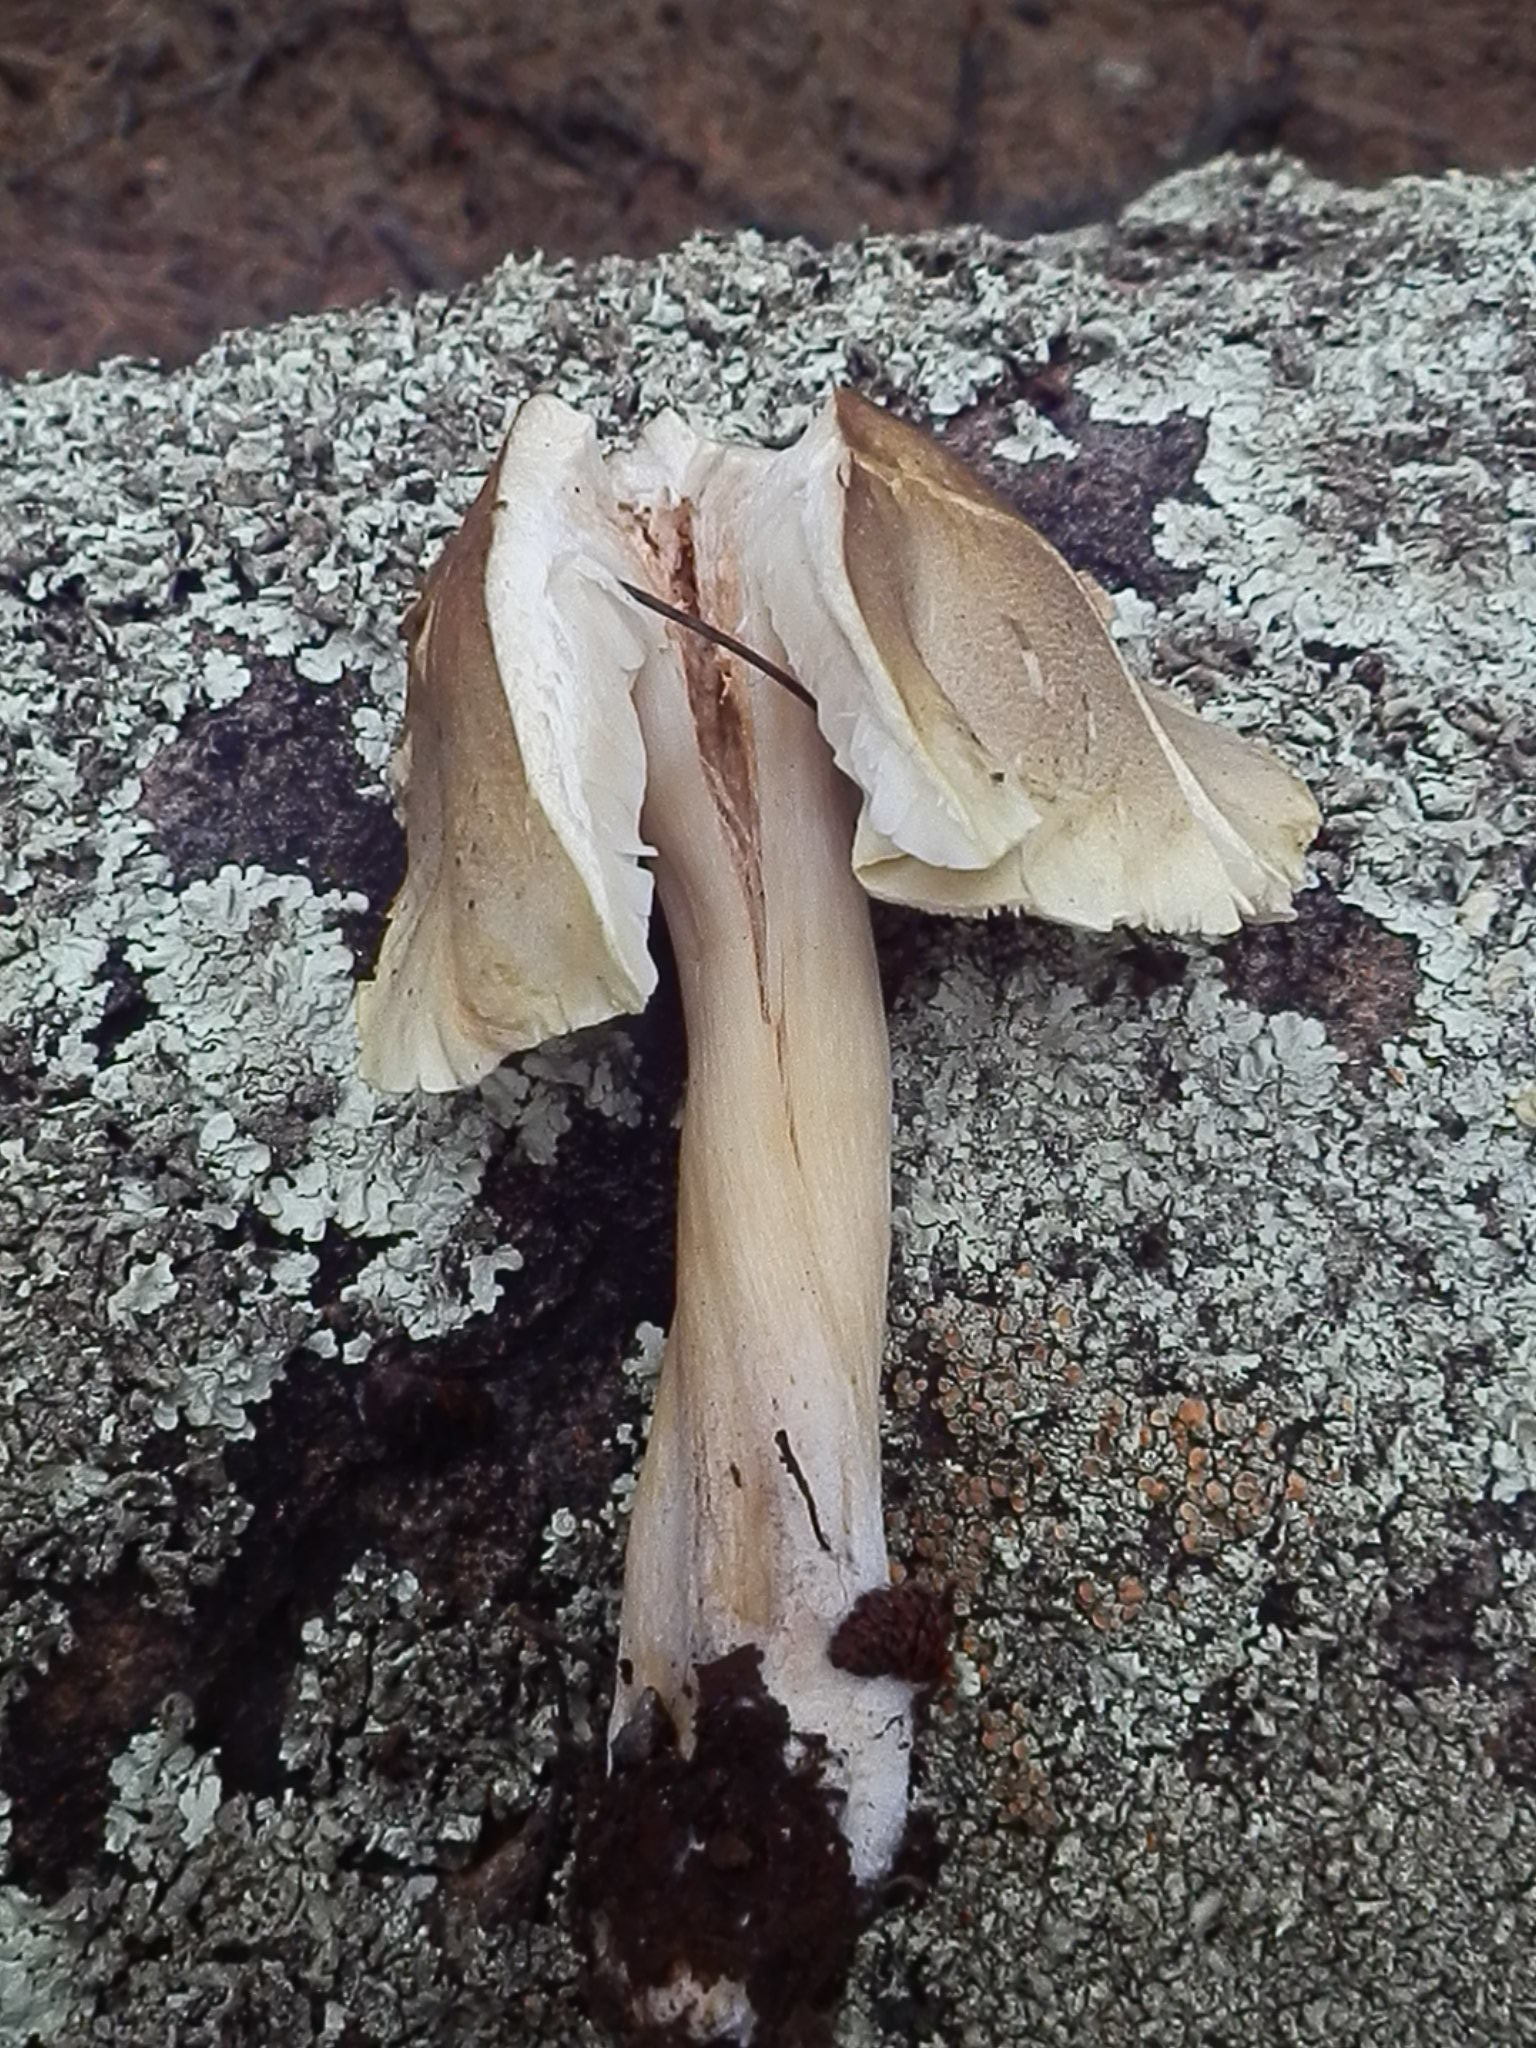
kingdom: Fungi
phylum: Basidiomycota
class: Agaricomycetes
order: Agaricales
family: Tricholomataceae
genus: Tricholoma
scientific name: Tricholoma saponaceum
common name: Soapy trich
